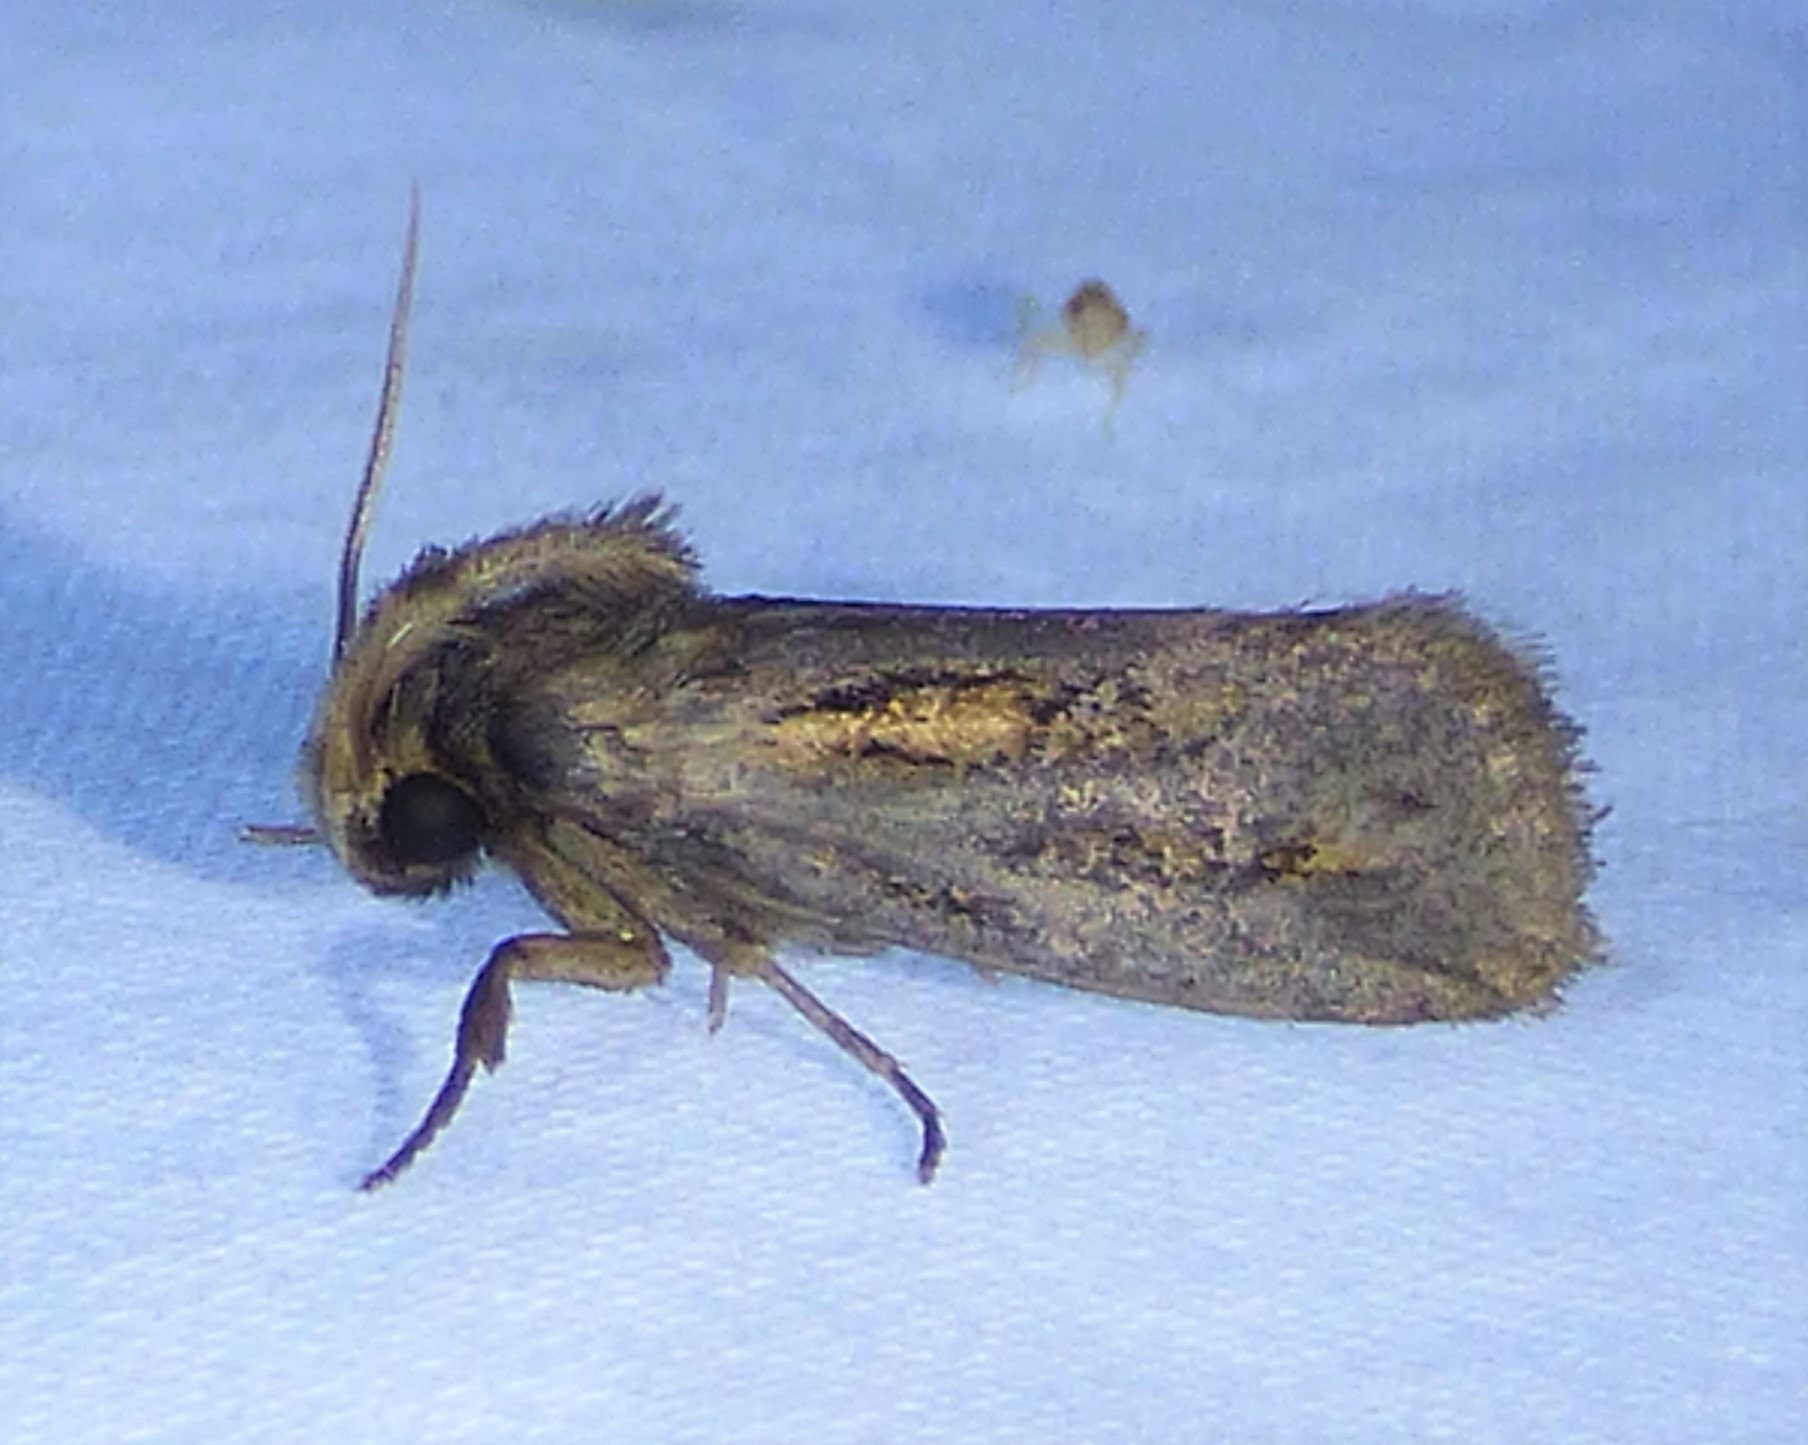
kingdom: Animalia
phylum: Arthropoda
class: Insecta
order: Lepidoptera
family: Tineidae
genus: Acrolophus
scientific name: Acrolophus popeanella
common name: Clemens' grass tubeworm moth
